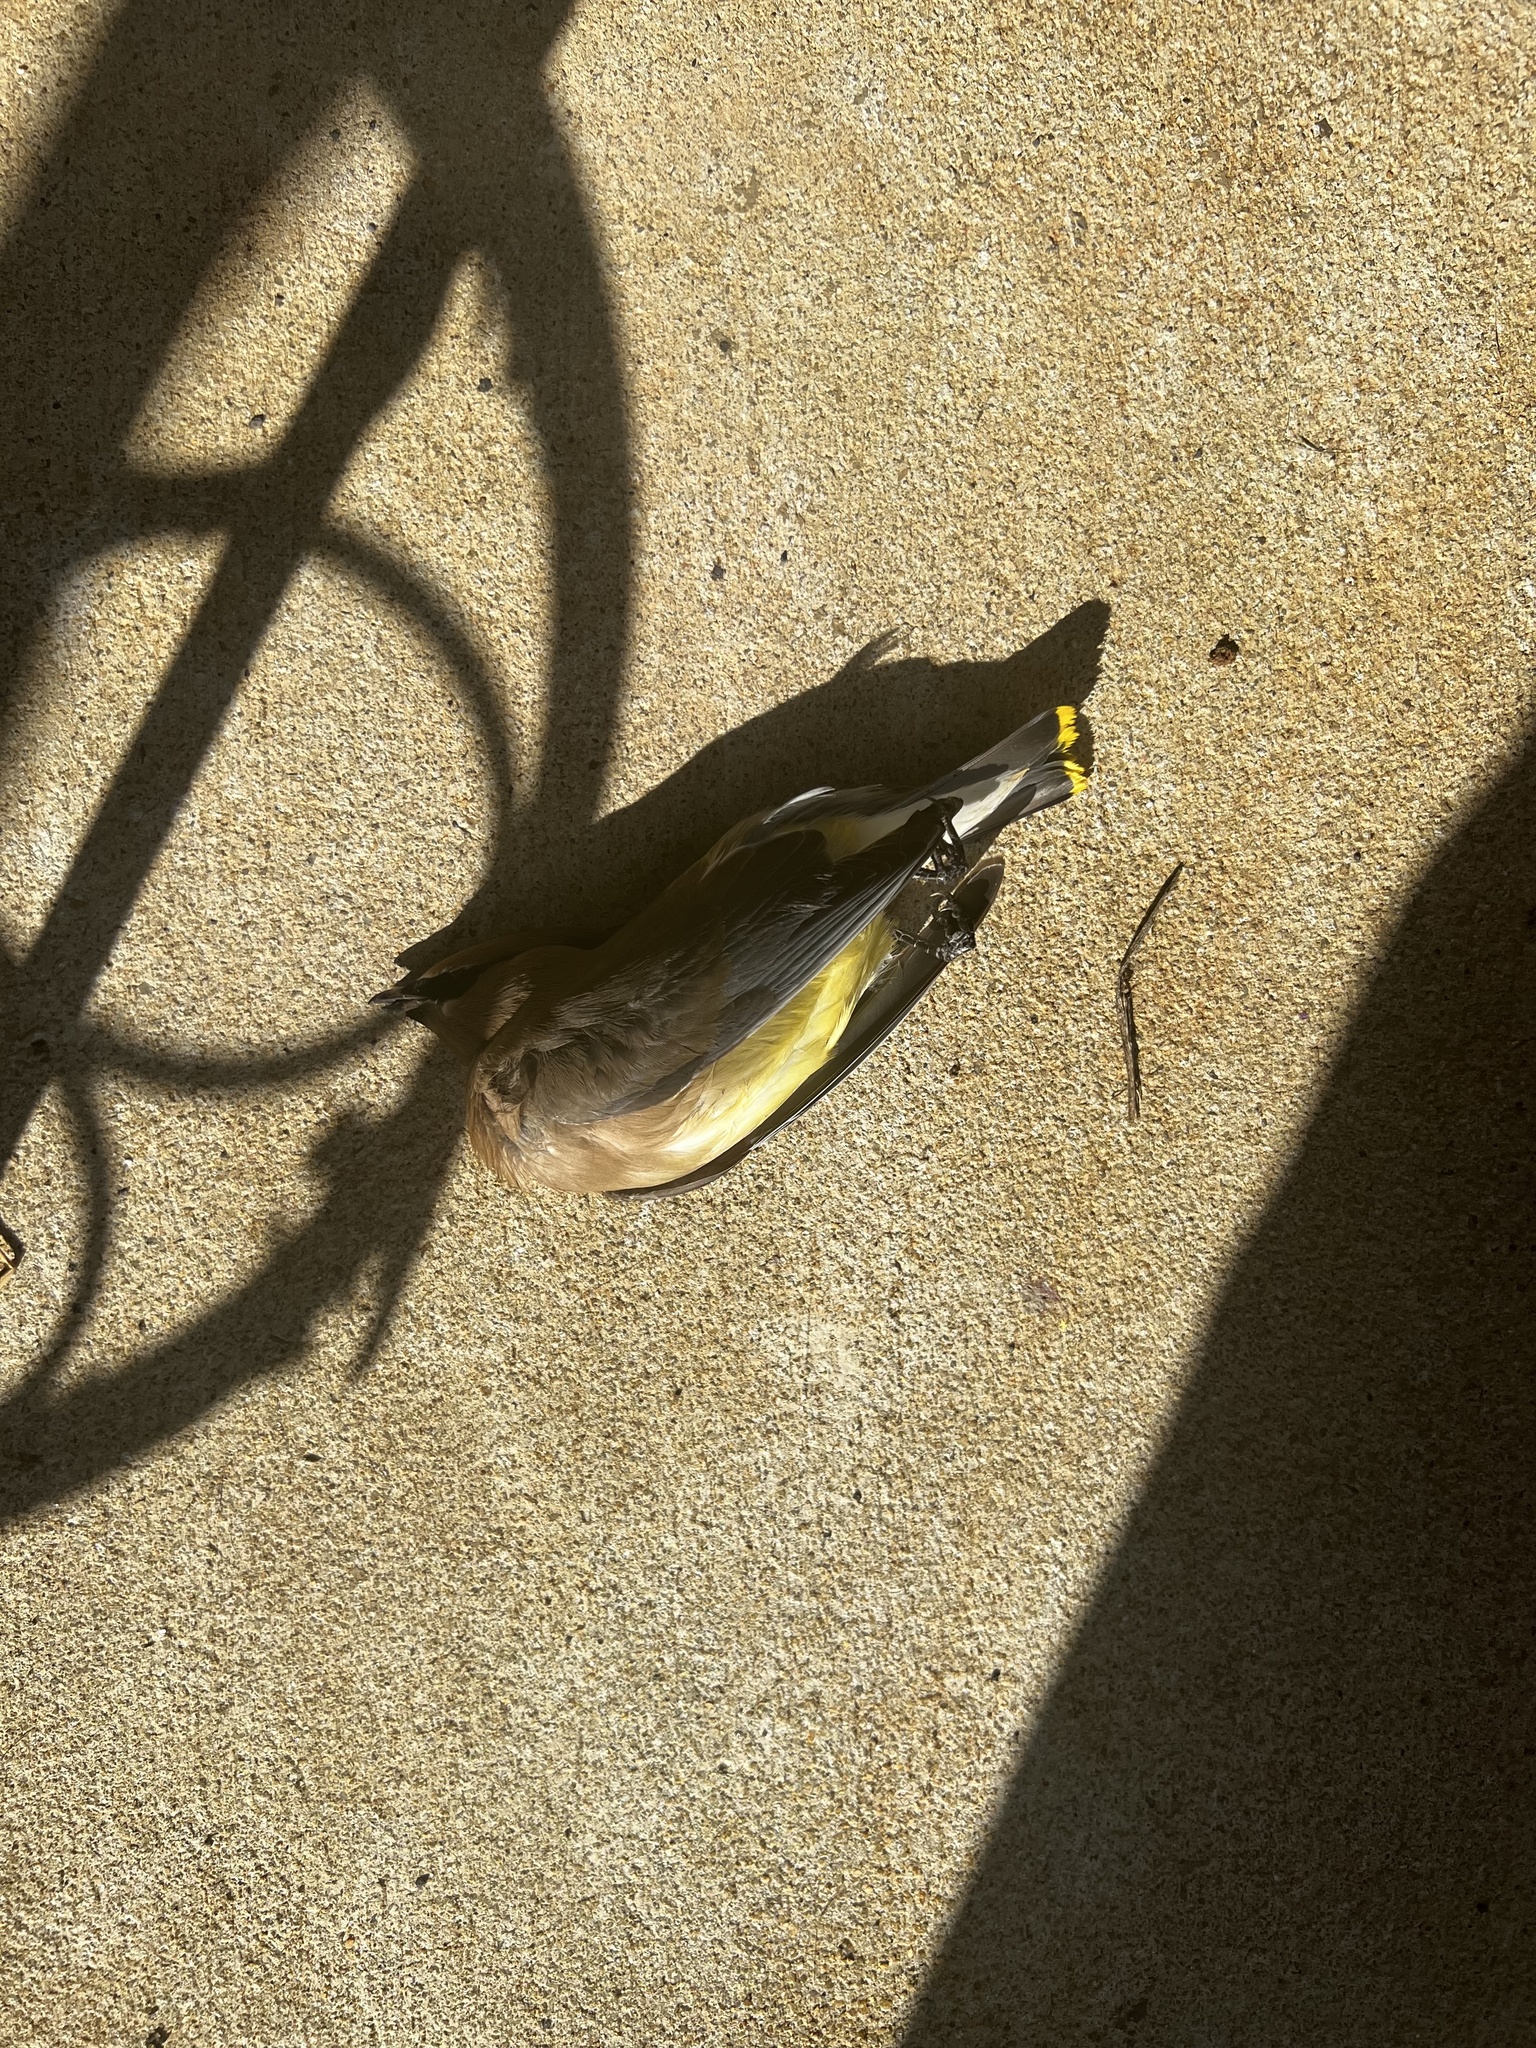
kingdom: Animalia
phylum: Chordata
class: Aves
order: Passeriformes
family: Bombycillidae
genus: Bombycilla
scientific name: Bombycilla cedrorum
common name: Cedar waxwing
